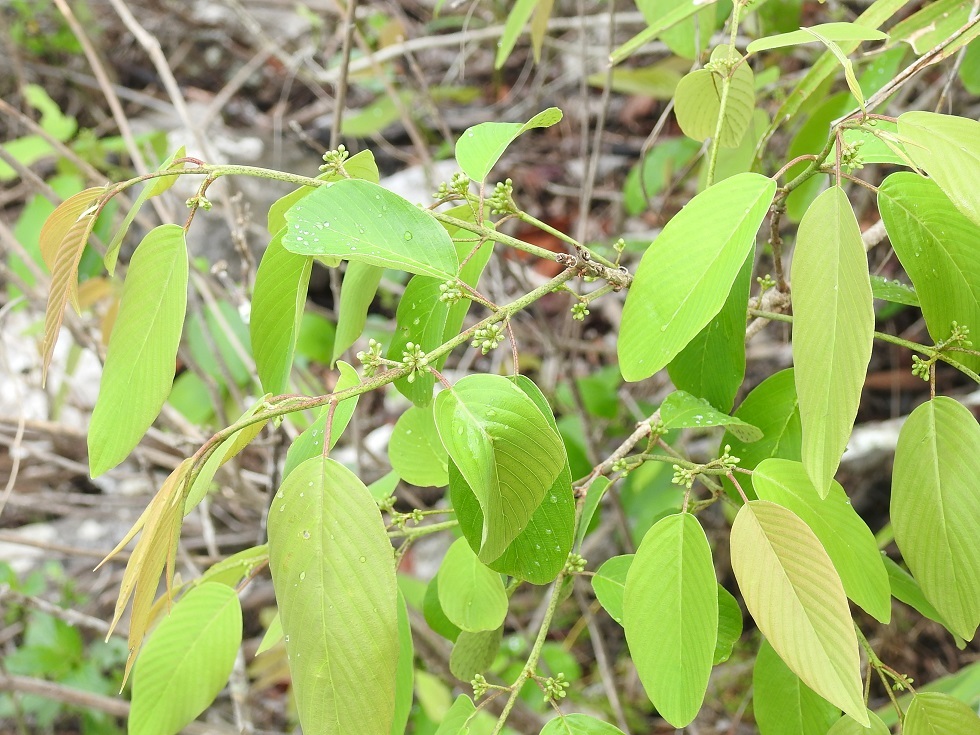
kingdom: Plantae
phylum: Tracheophyta
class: Magnoliopsida
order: Rosales
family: Rhamnaceae
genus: Karwinskia
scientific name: Karwinskia calderonii
